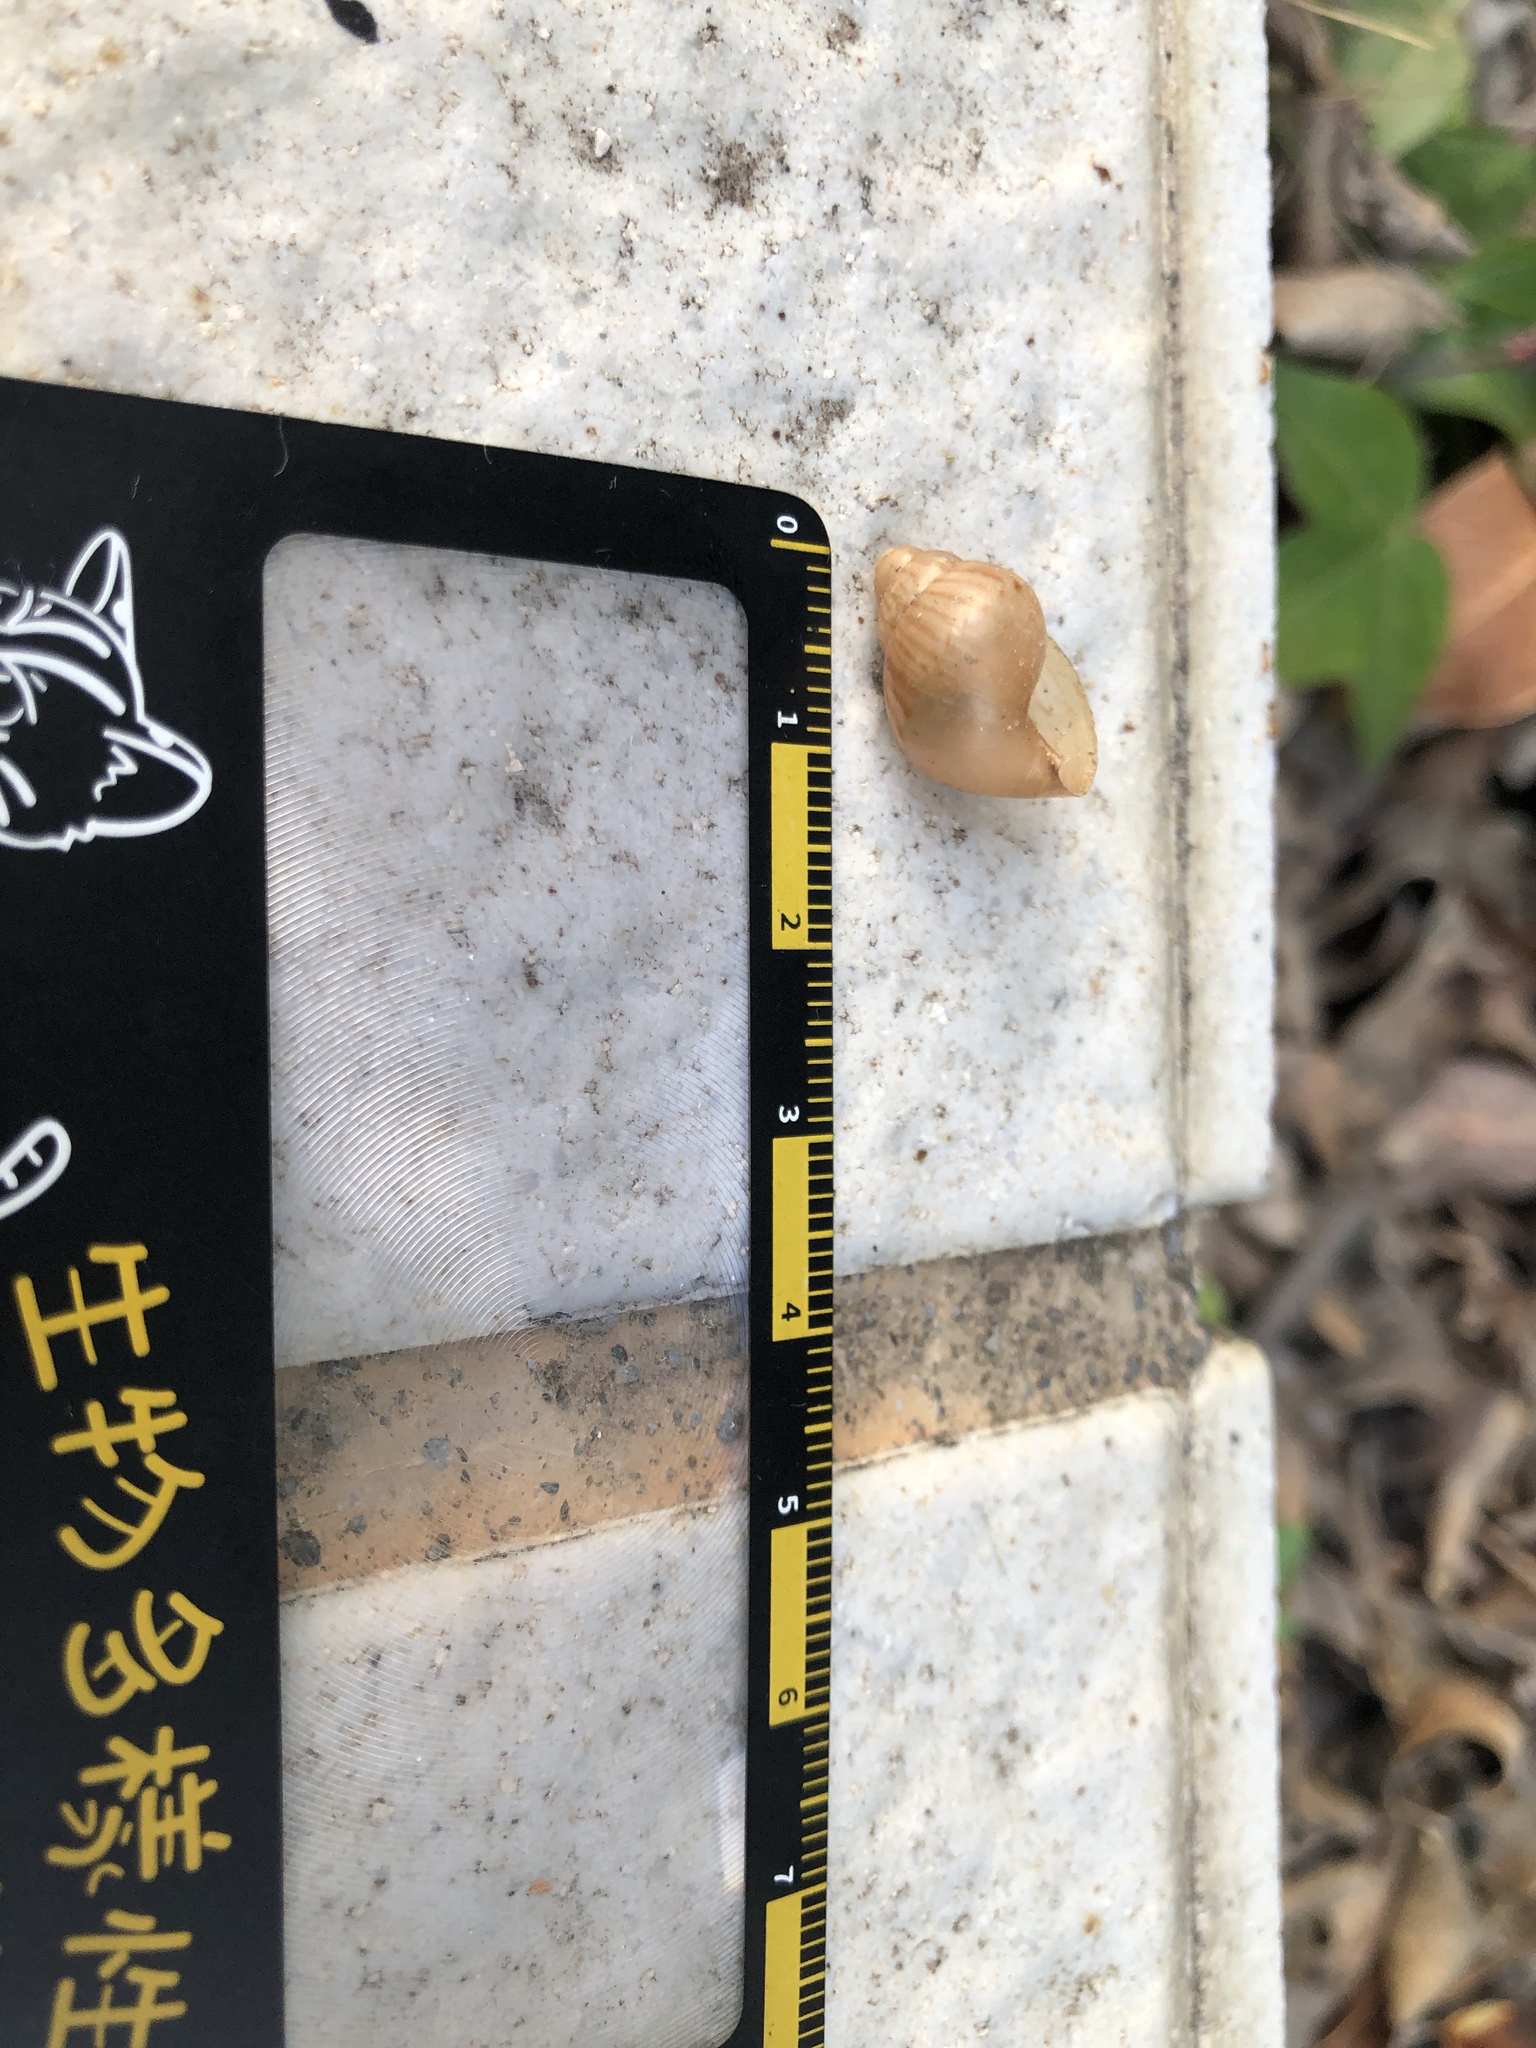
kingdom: Animalia
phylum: Mollusca
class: Gastropoda
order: Stylommatophora
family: Achatinidae
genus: Lissachatina
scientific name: Lissachatina fulica
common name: Giant african snail
